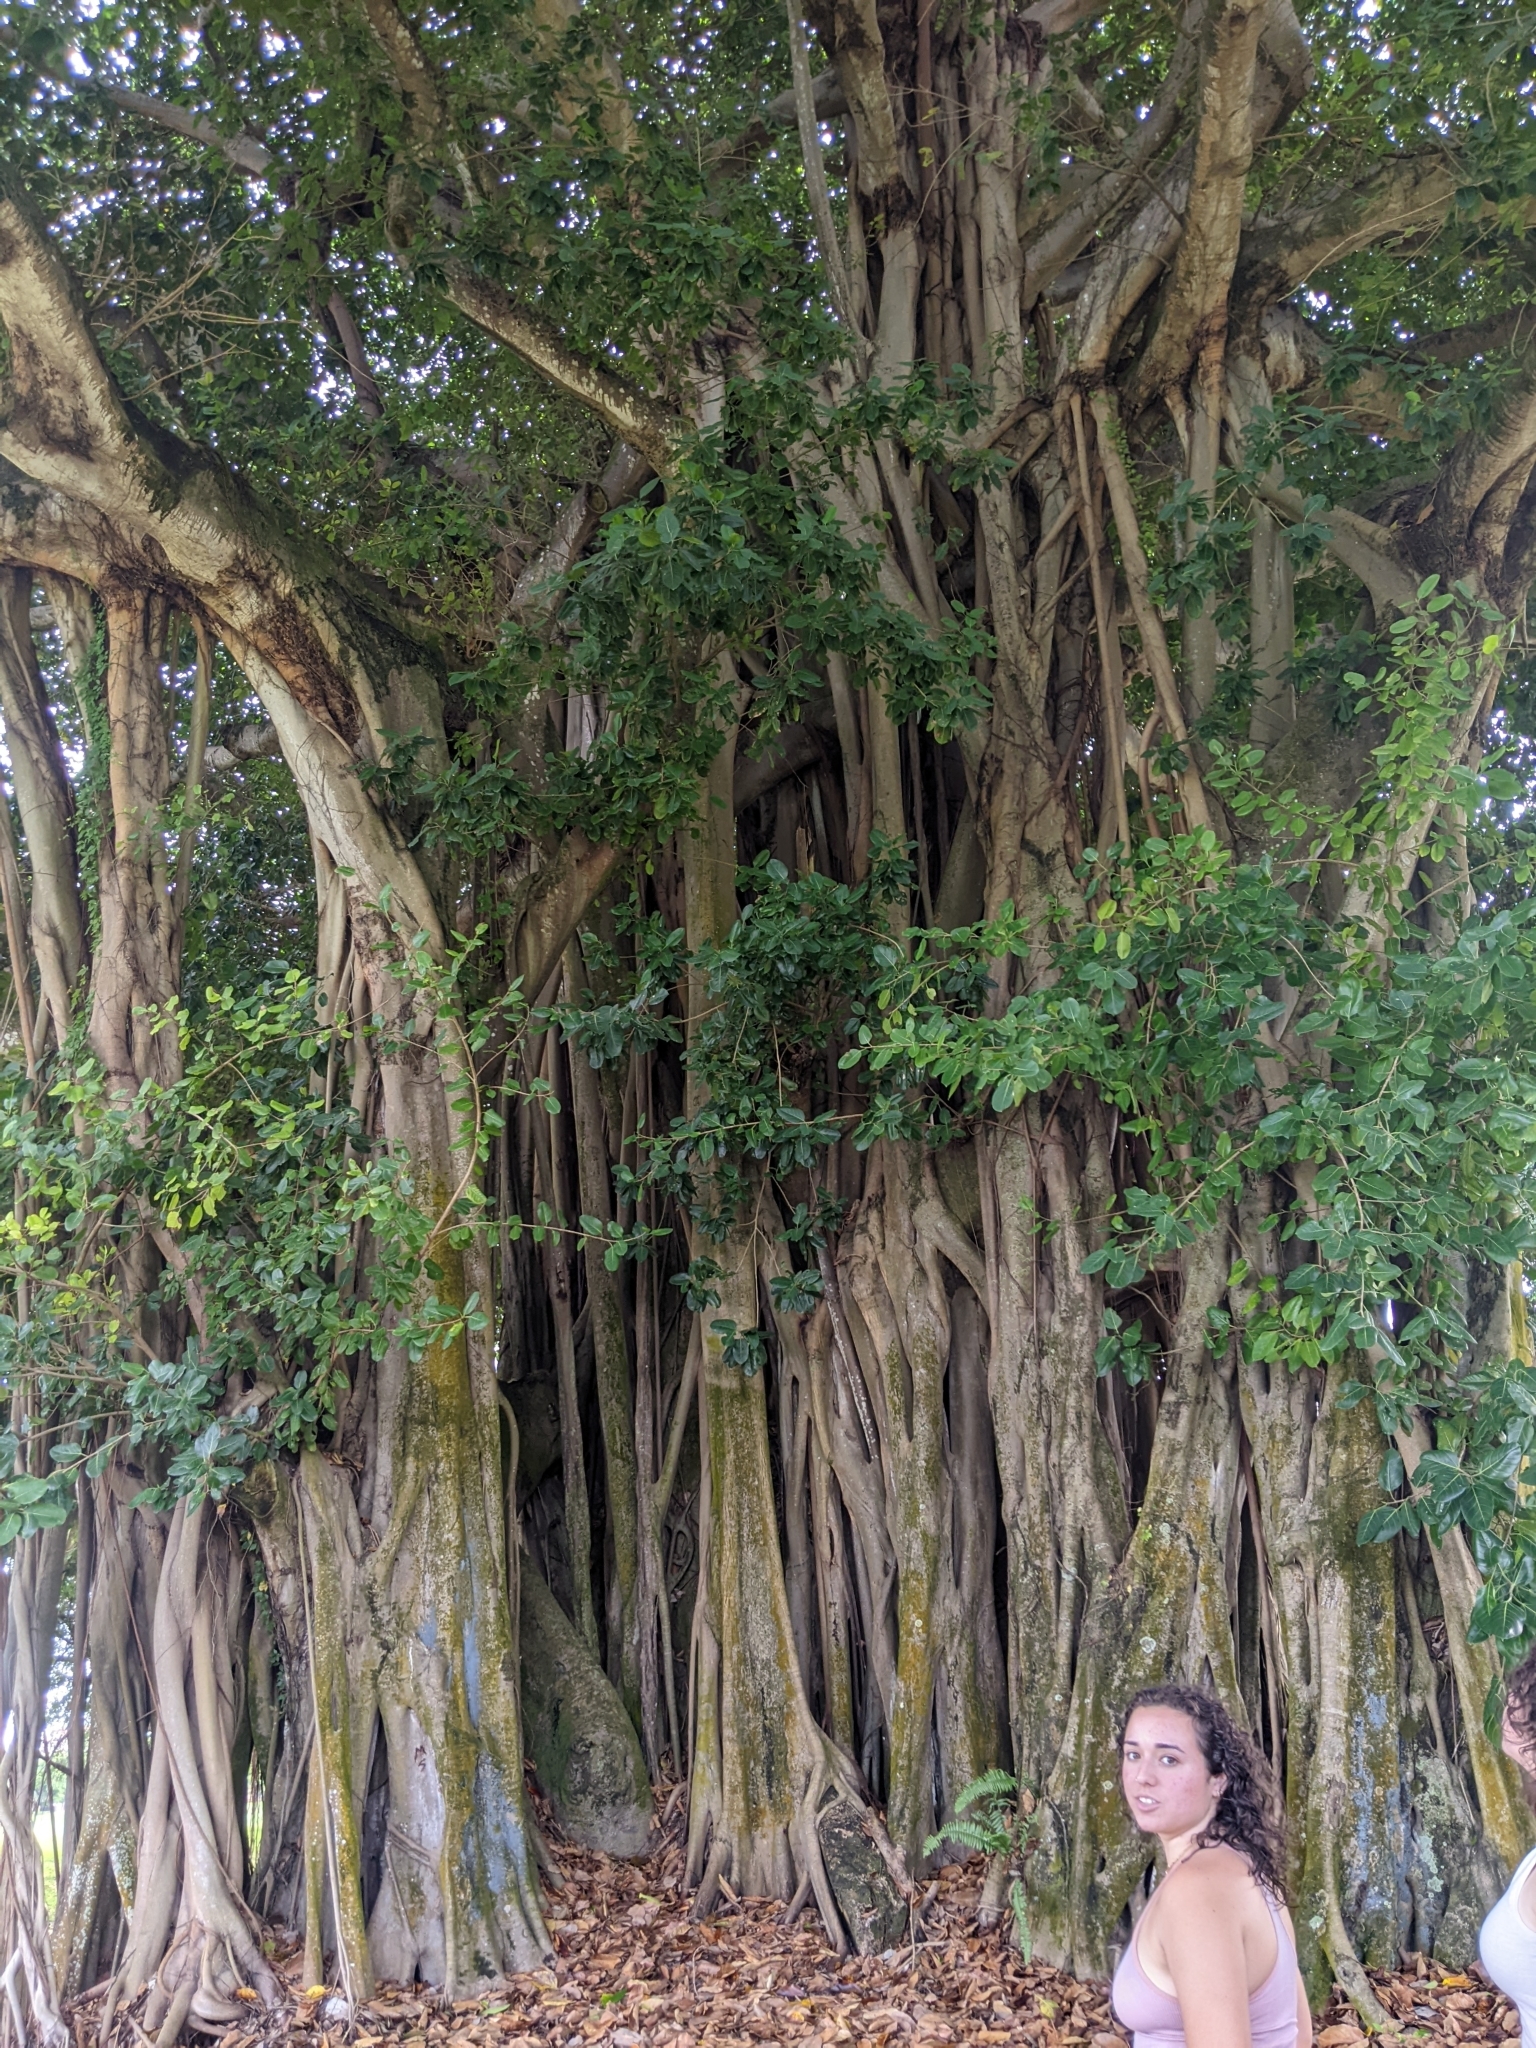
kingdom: Plantae
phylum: Tracheophyta
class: Magnoliopsida
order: Rosales
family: Moraceae
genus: Ficus
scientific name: Ficus benghalensis
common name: Indian banyan
